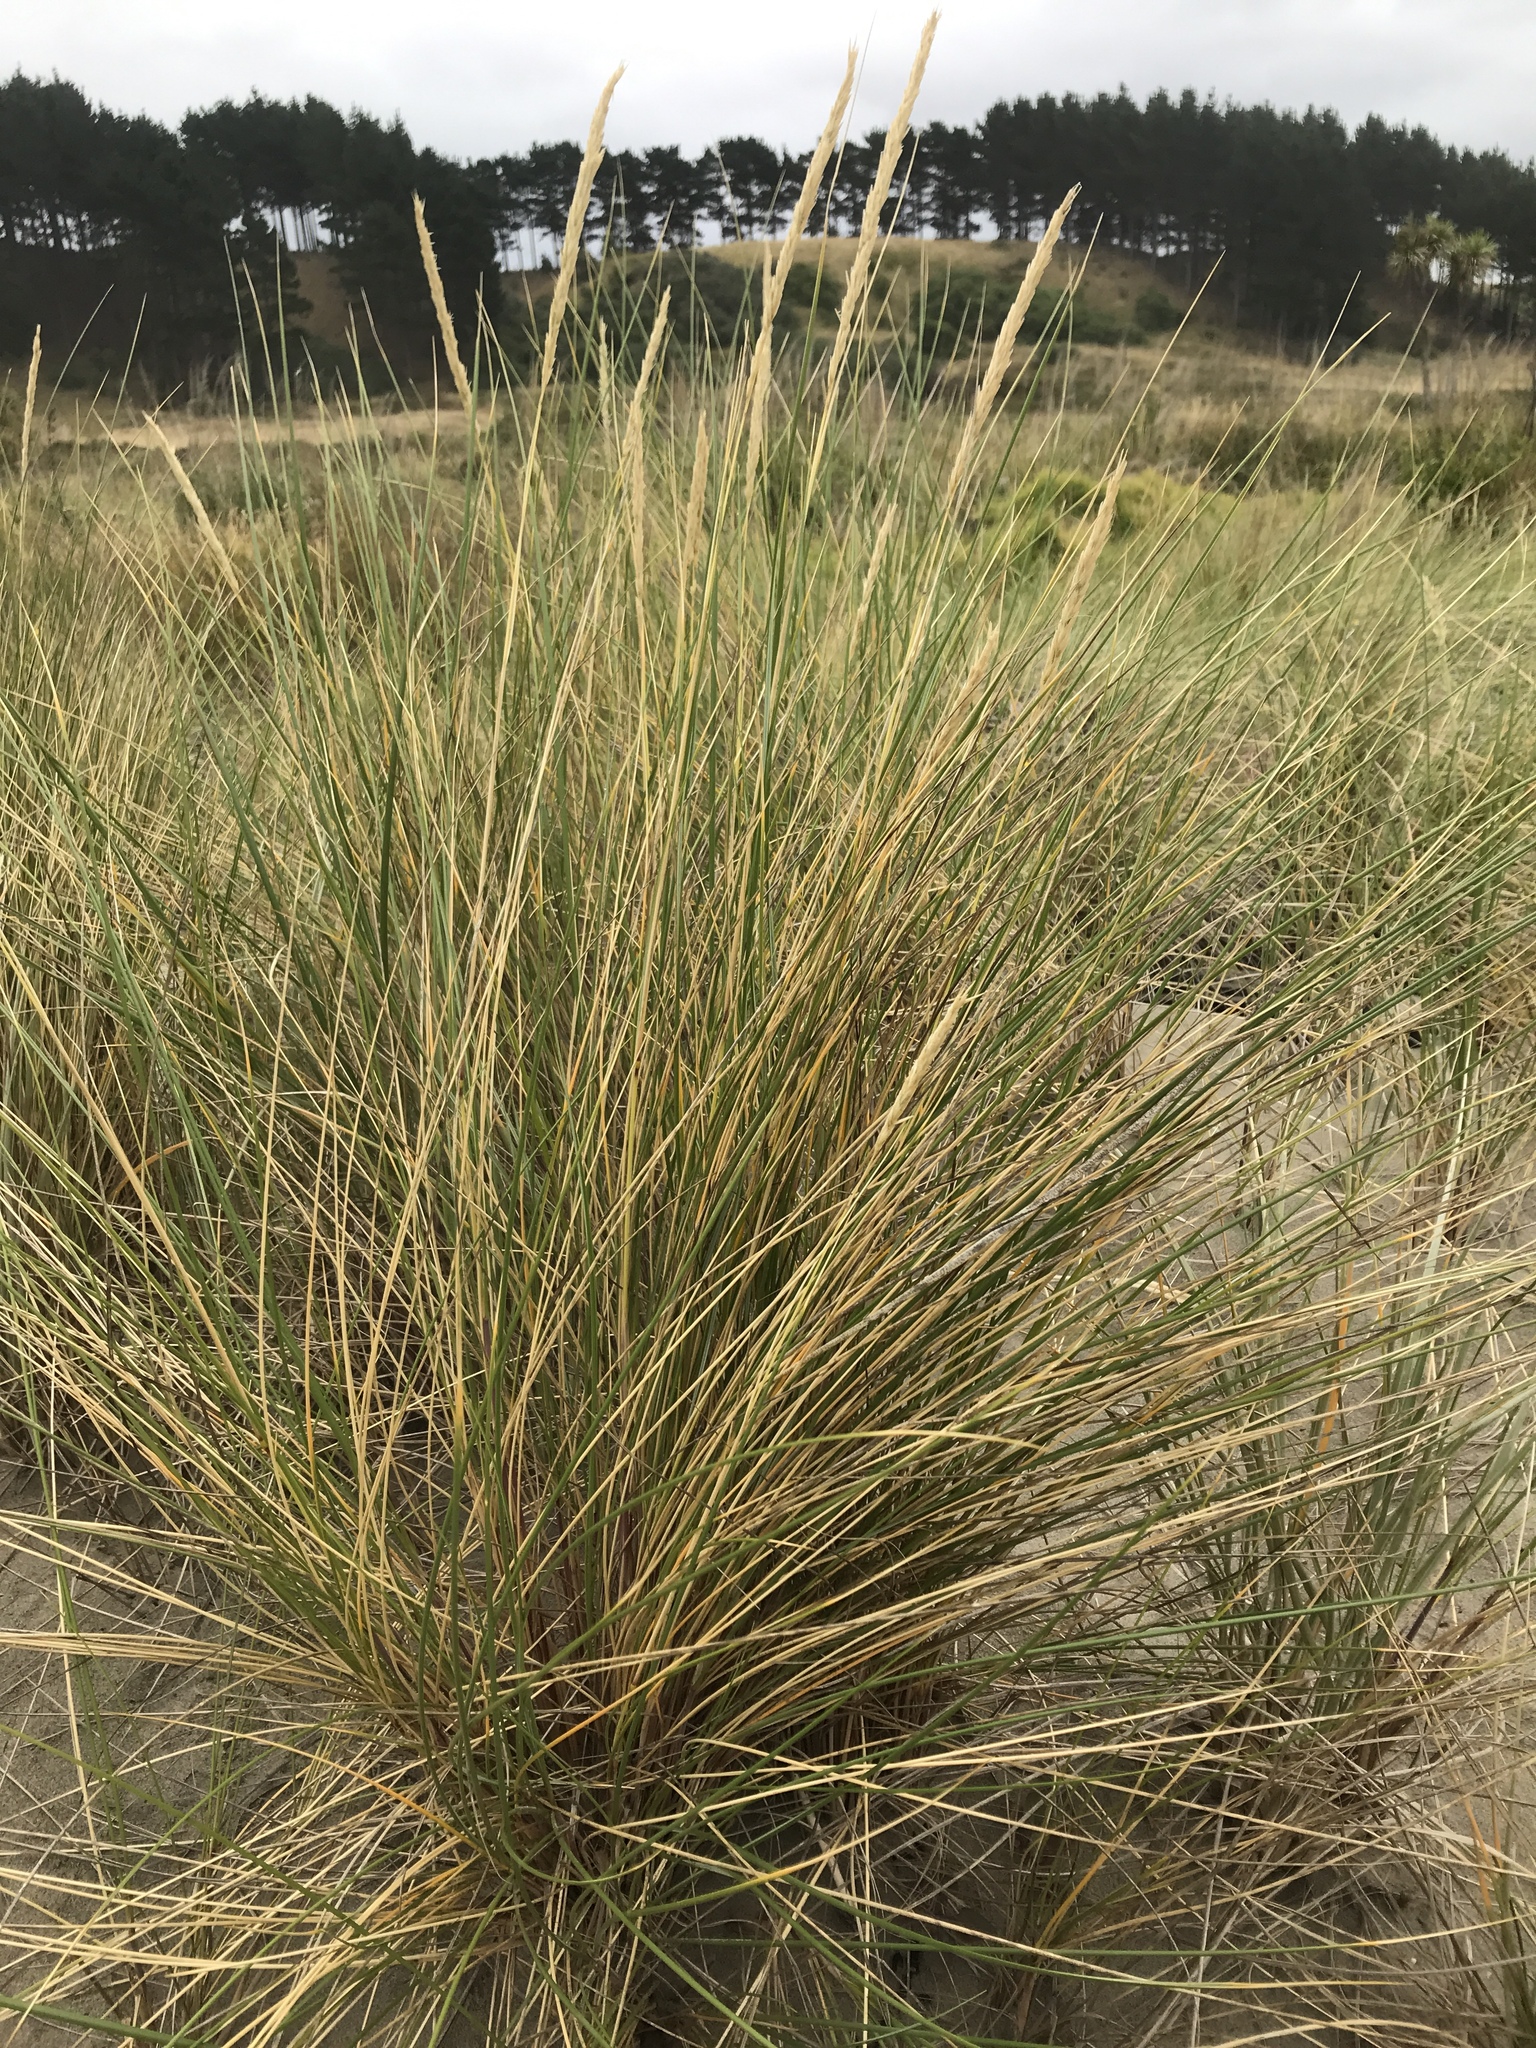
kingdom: Plantae
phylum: Tracheophyta
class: Liliopsida
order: Poales
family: Poaceae
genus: Calamagrostis
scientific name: Calamagrostis arenaria
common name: European beachgrass
